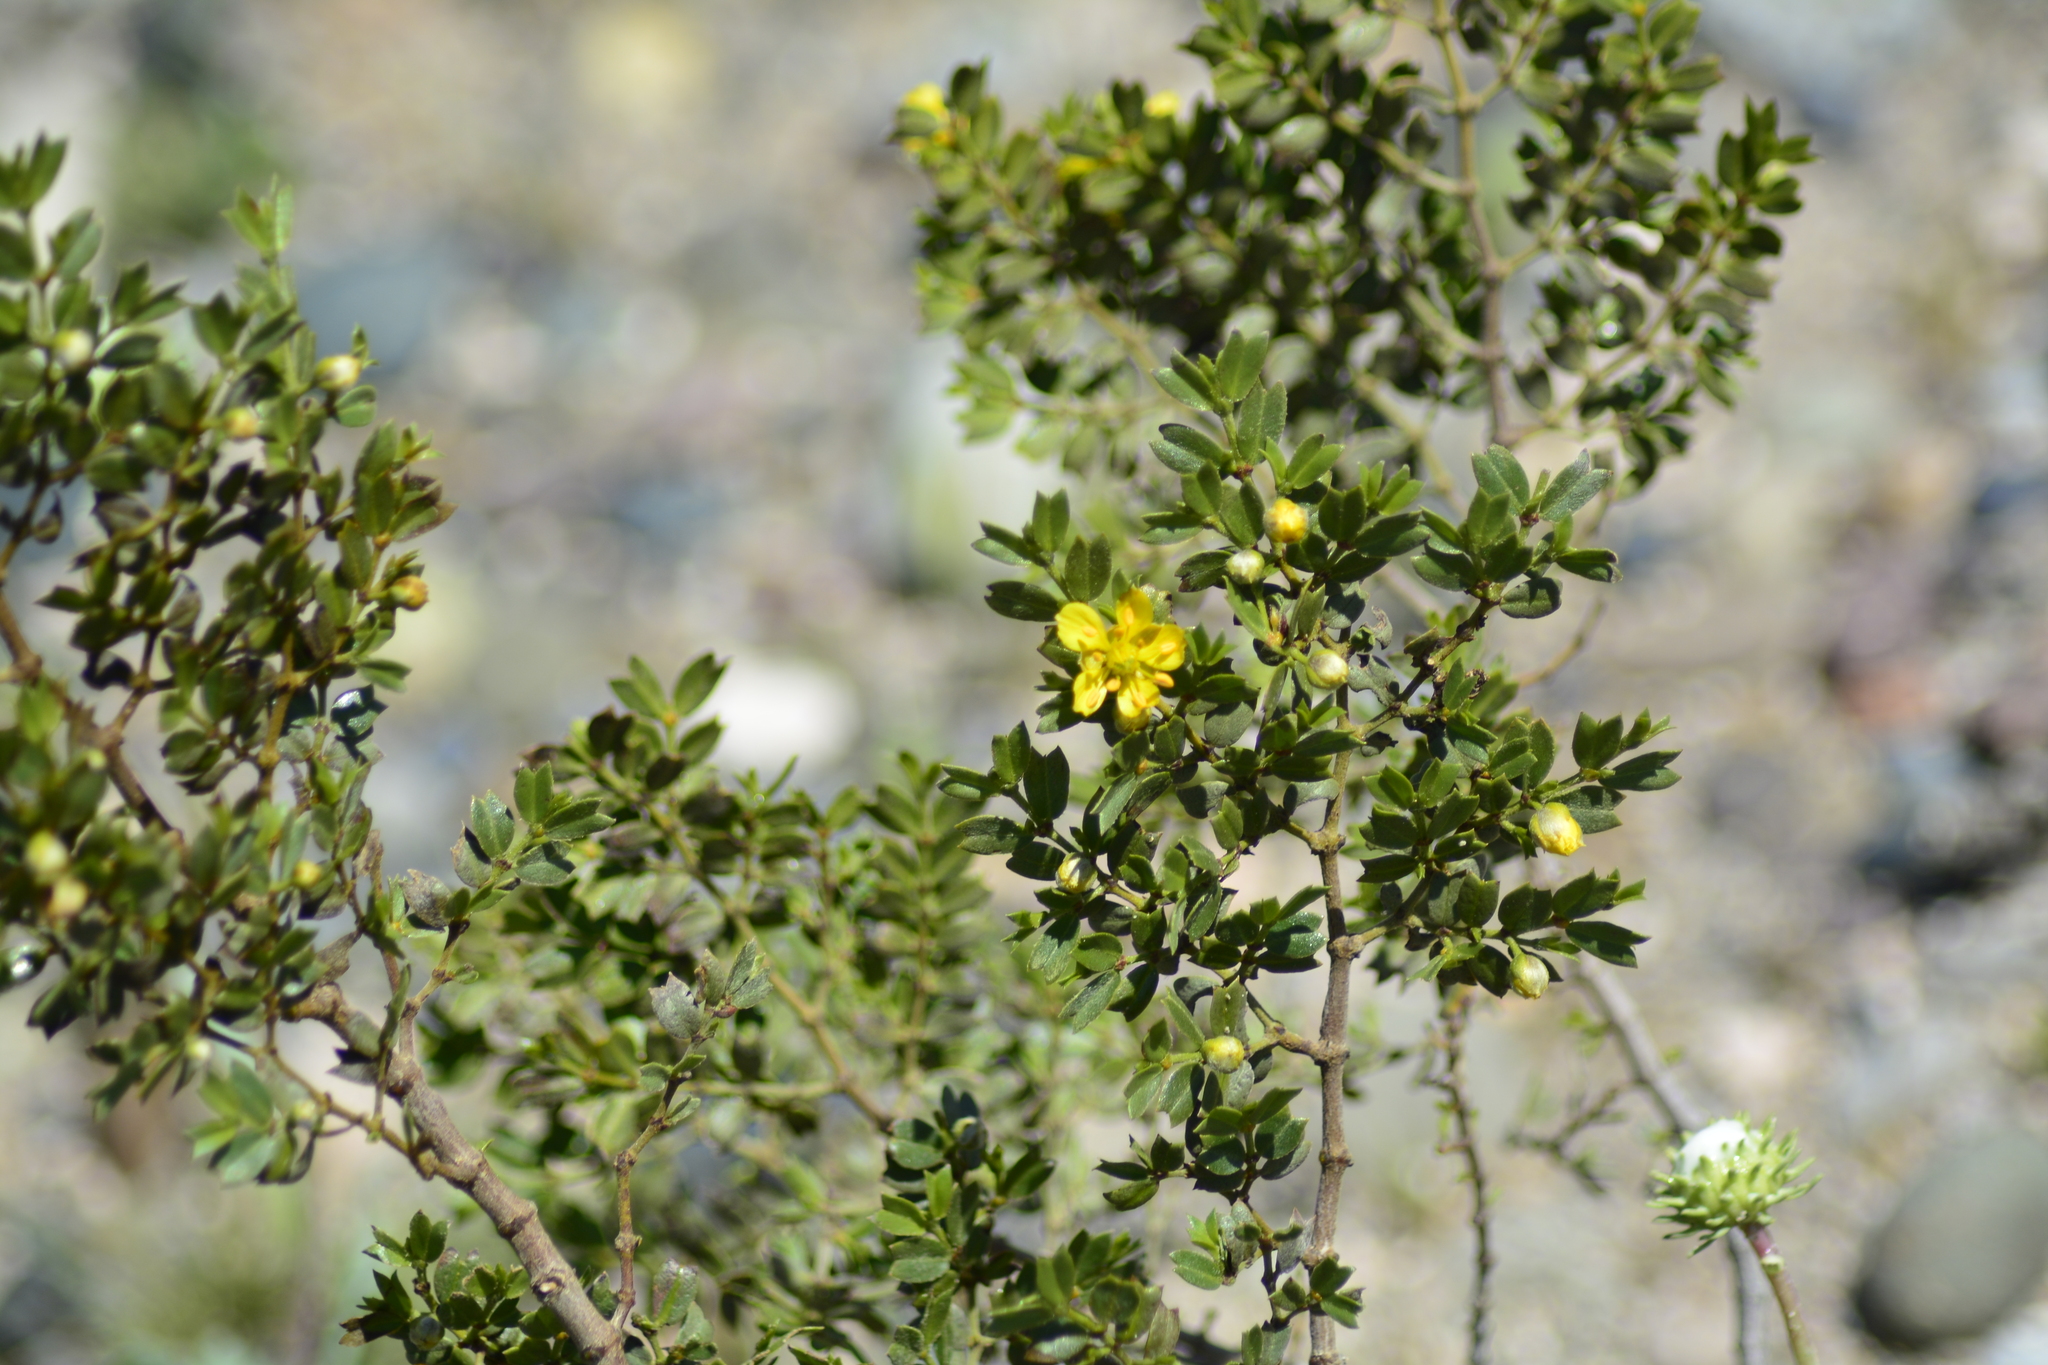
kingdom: Plantae
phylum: Tracheophyta
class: Magnoliopsida
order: Zygophyllales
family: Zygophyllaceae
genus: Larrea
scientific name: Larrea cuneifolia
